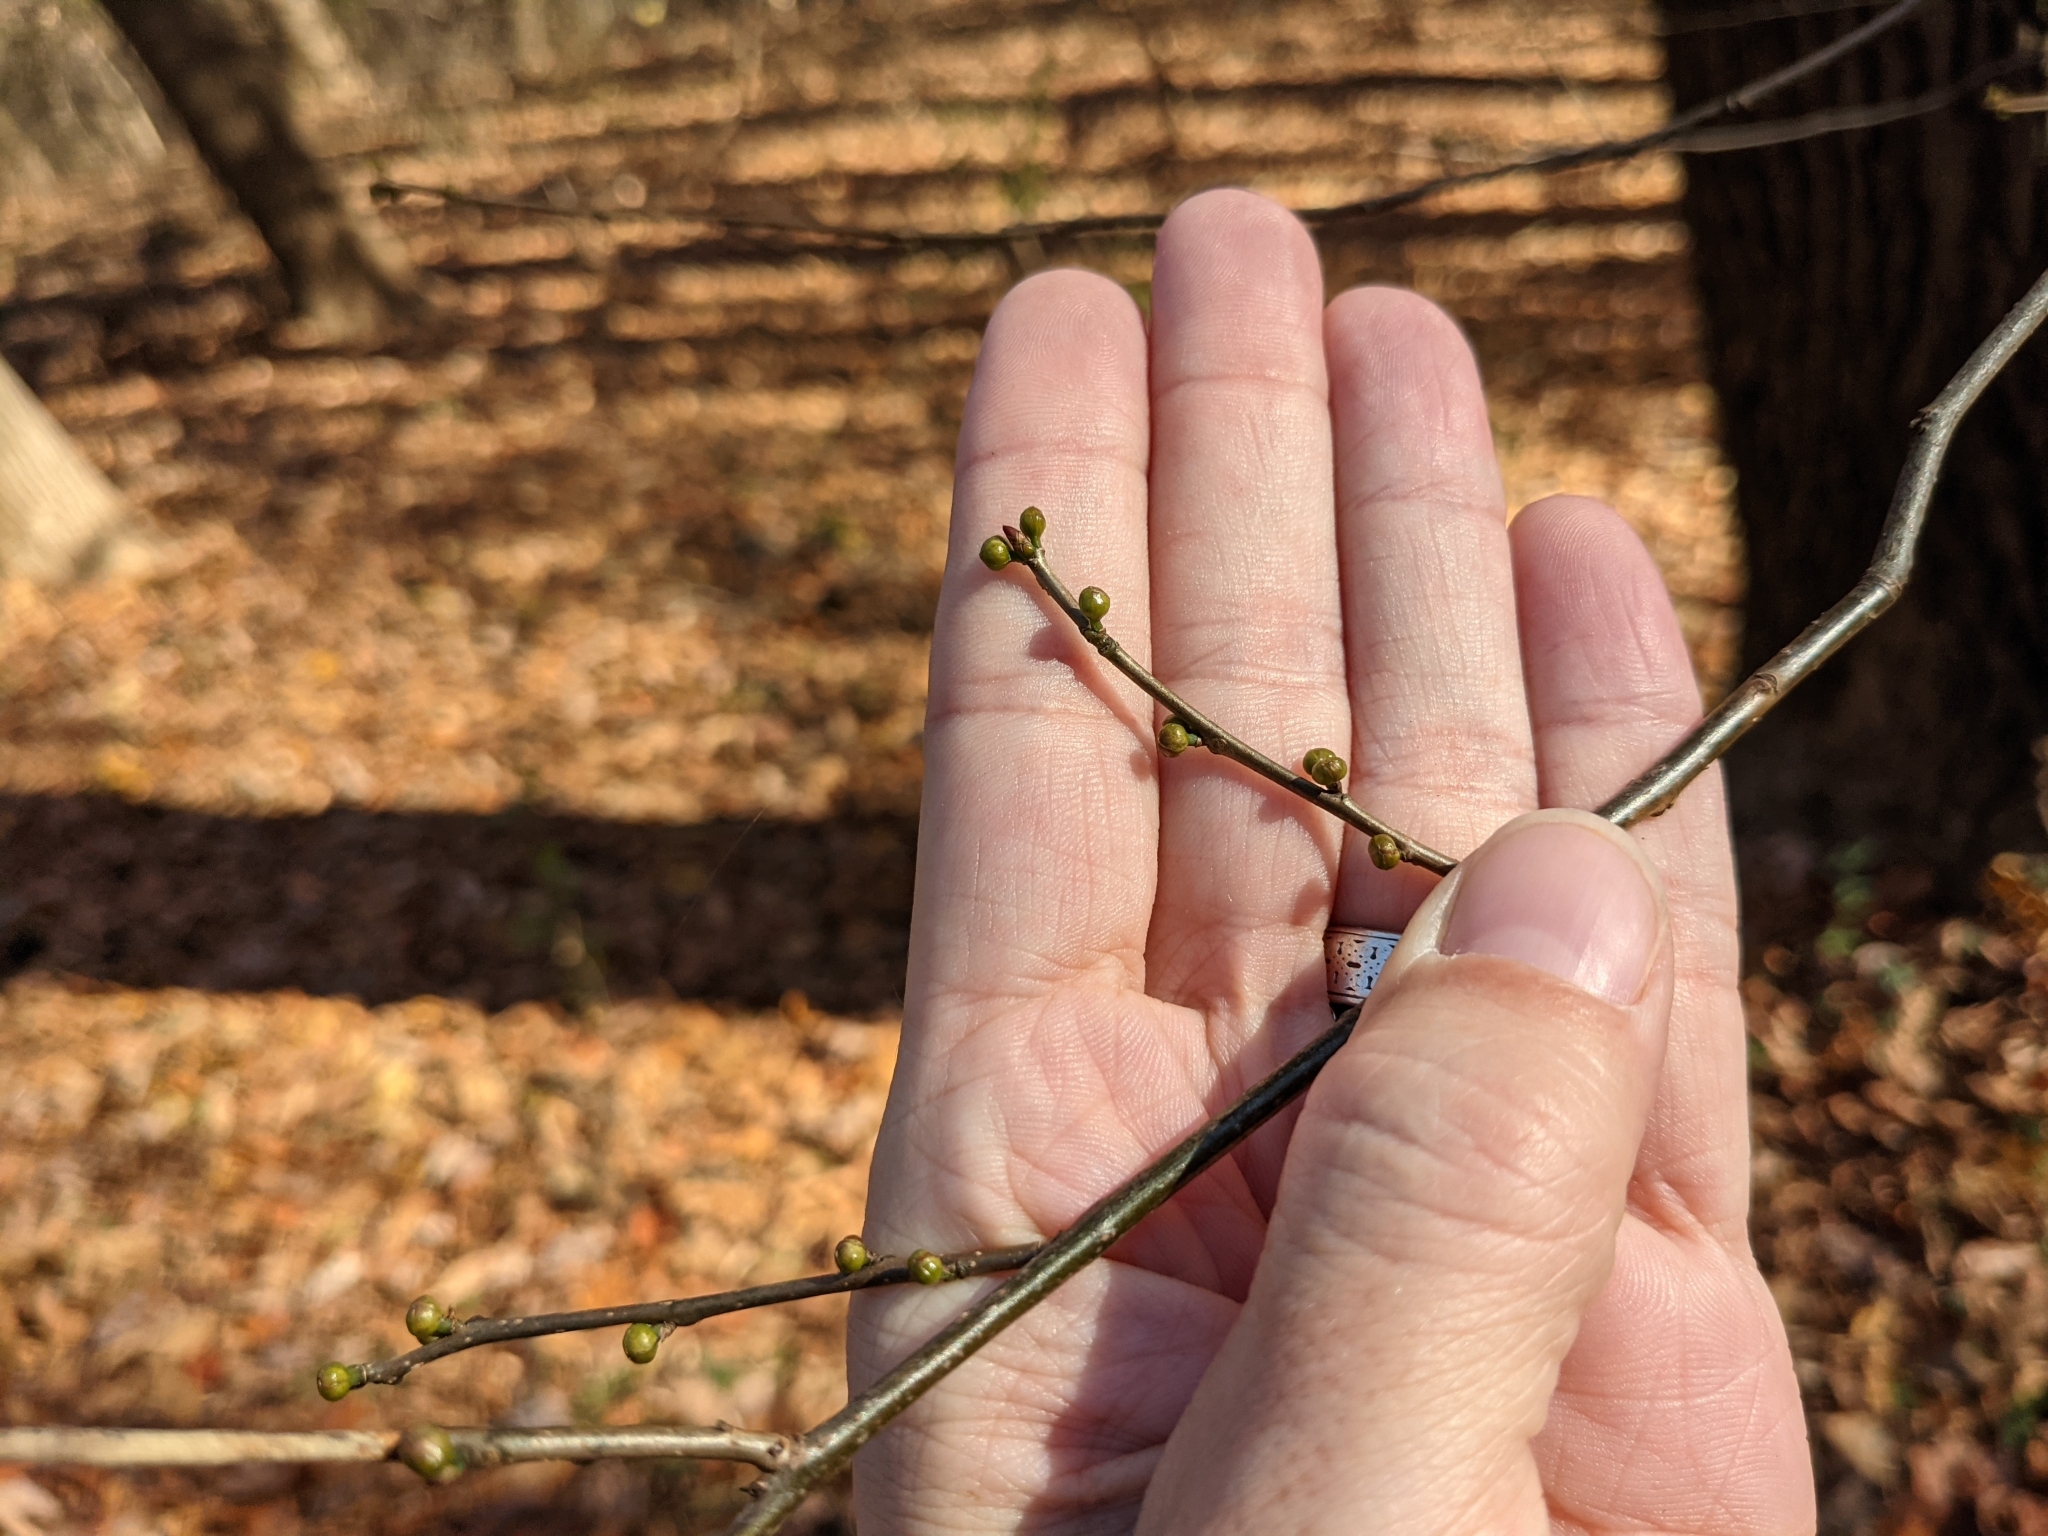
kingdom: Plantae
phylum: Tracheophyta
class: Magnoliopsida
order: Laurales
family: Lauraceae
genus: Lindera
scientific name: Lindera benzoin
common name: Spicebush
